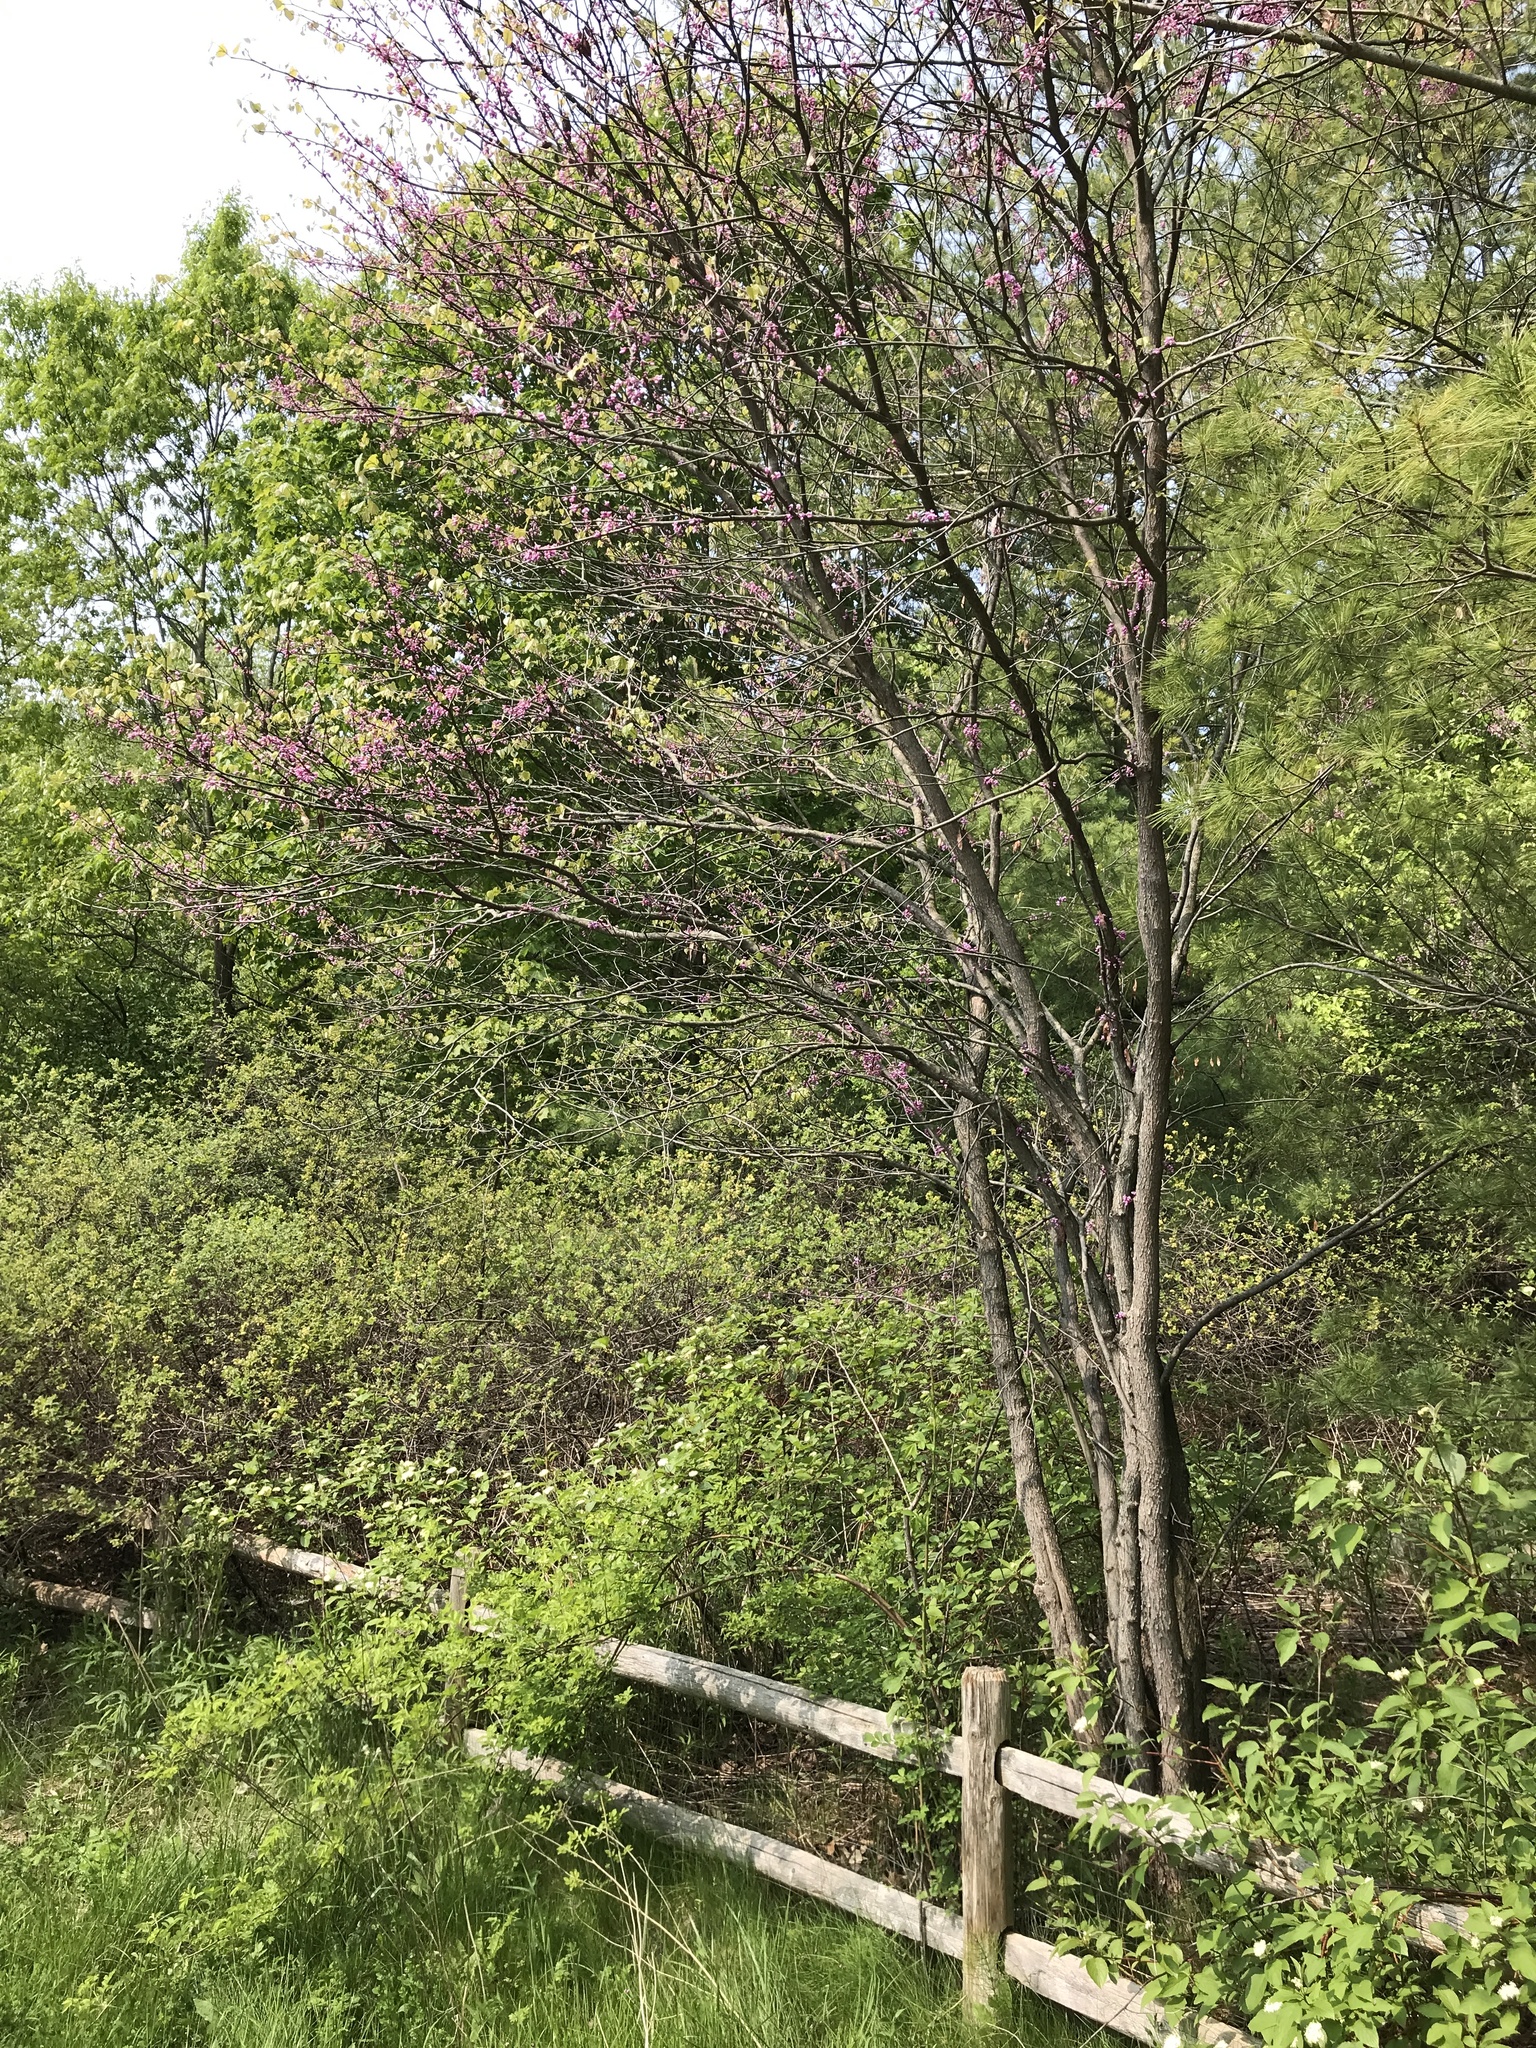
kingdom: Plantae
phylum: Tracheophyta
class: Magnoliopsida
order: Fabales
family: Fabaceae
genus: Cercis
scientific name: Cercis canadensis
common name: Eastern redbud
